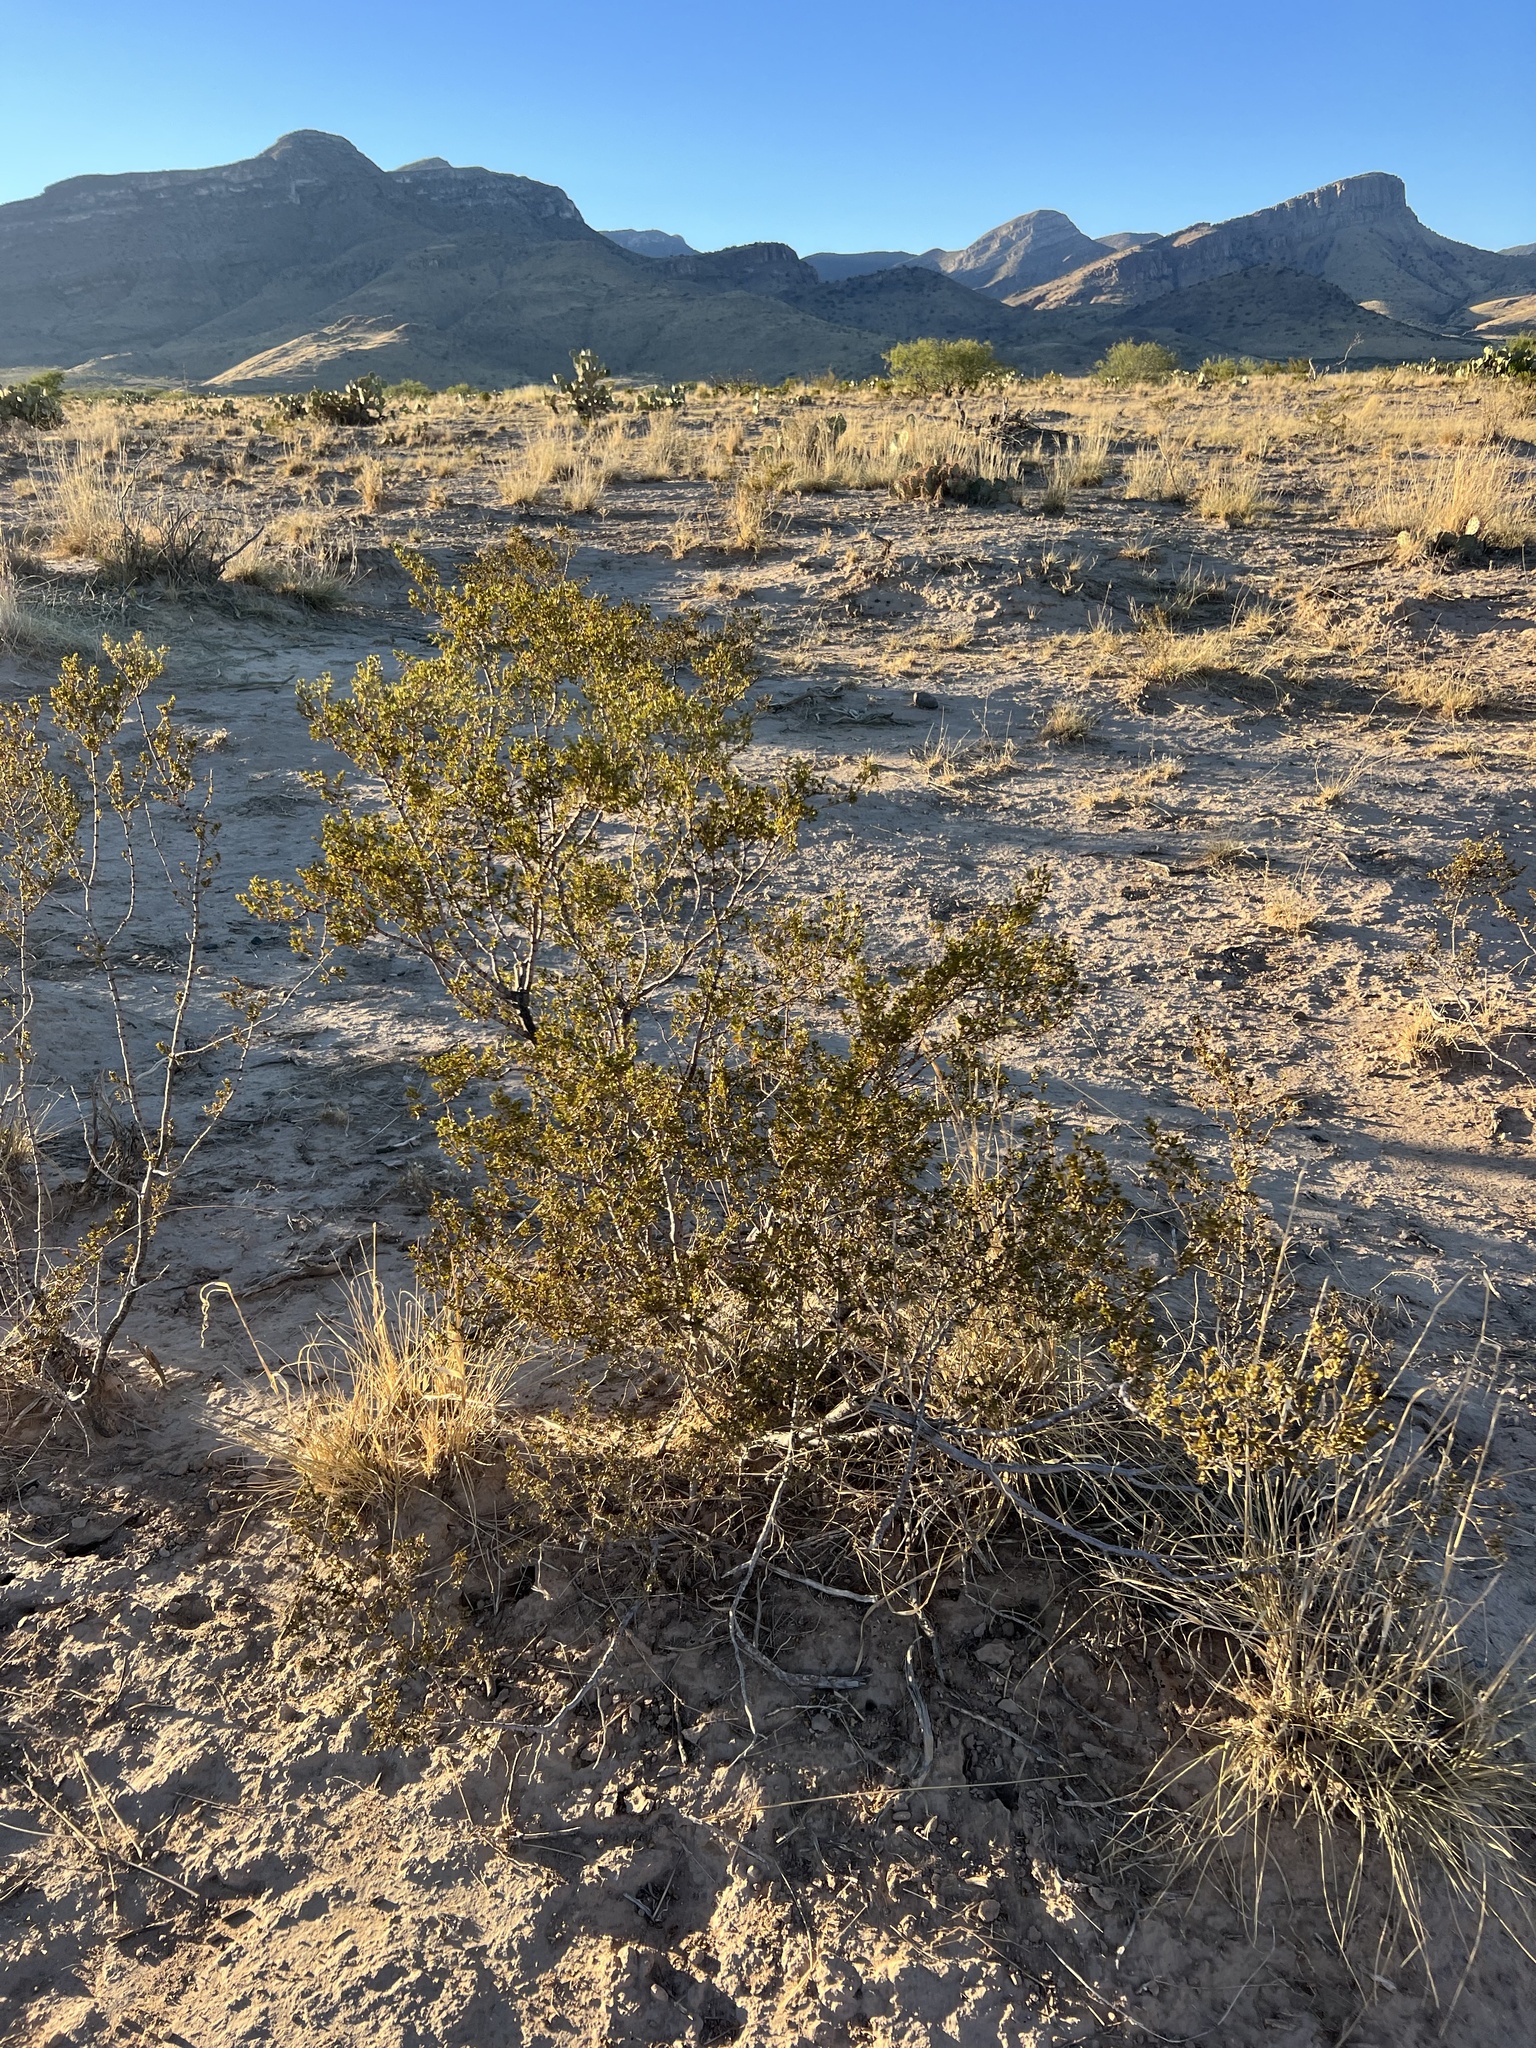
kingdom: Plantae
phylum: Tracheophyta
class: Magnoliopsida
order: Zygophyllales
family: Zygophyllaceae
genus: Larrea
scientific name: Larrea tridentata
